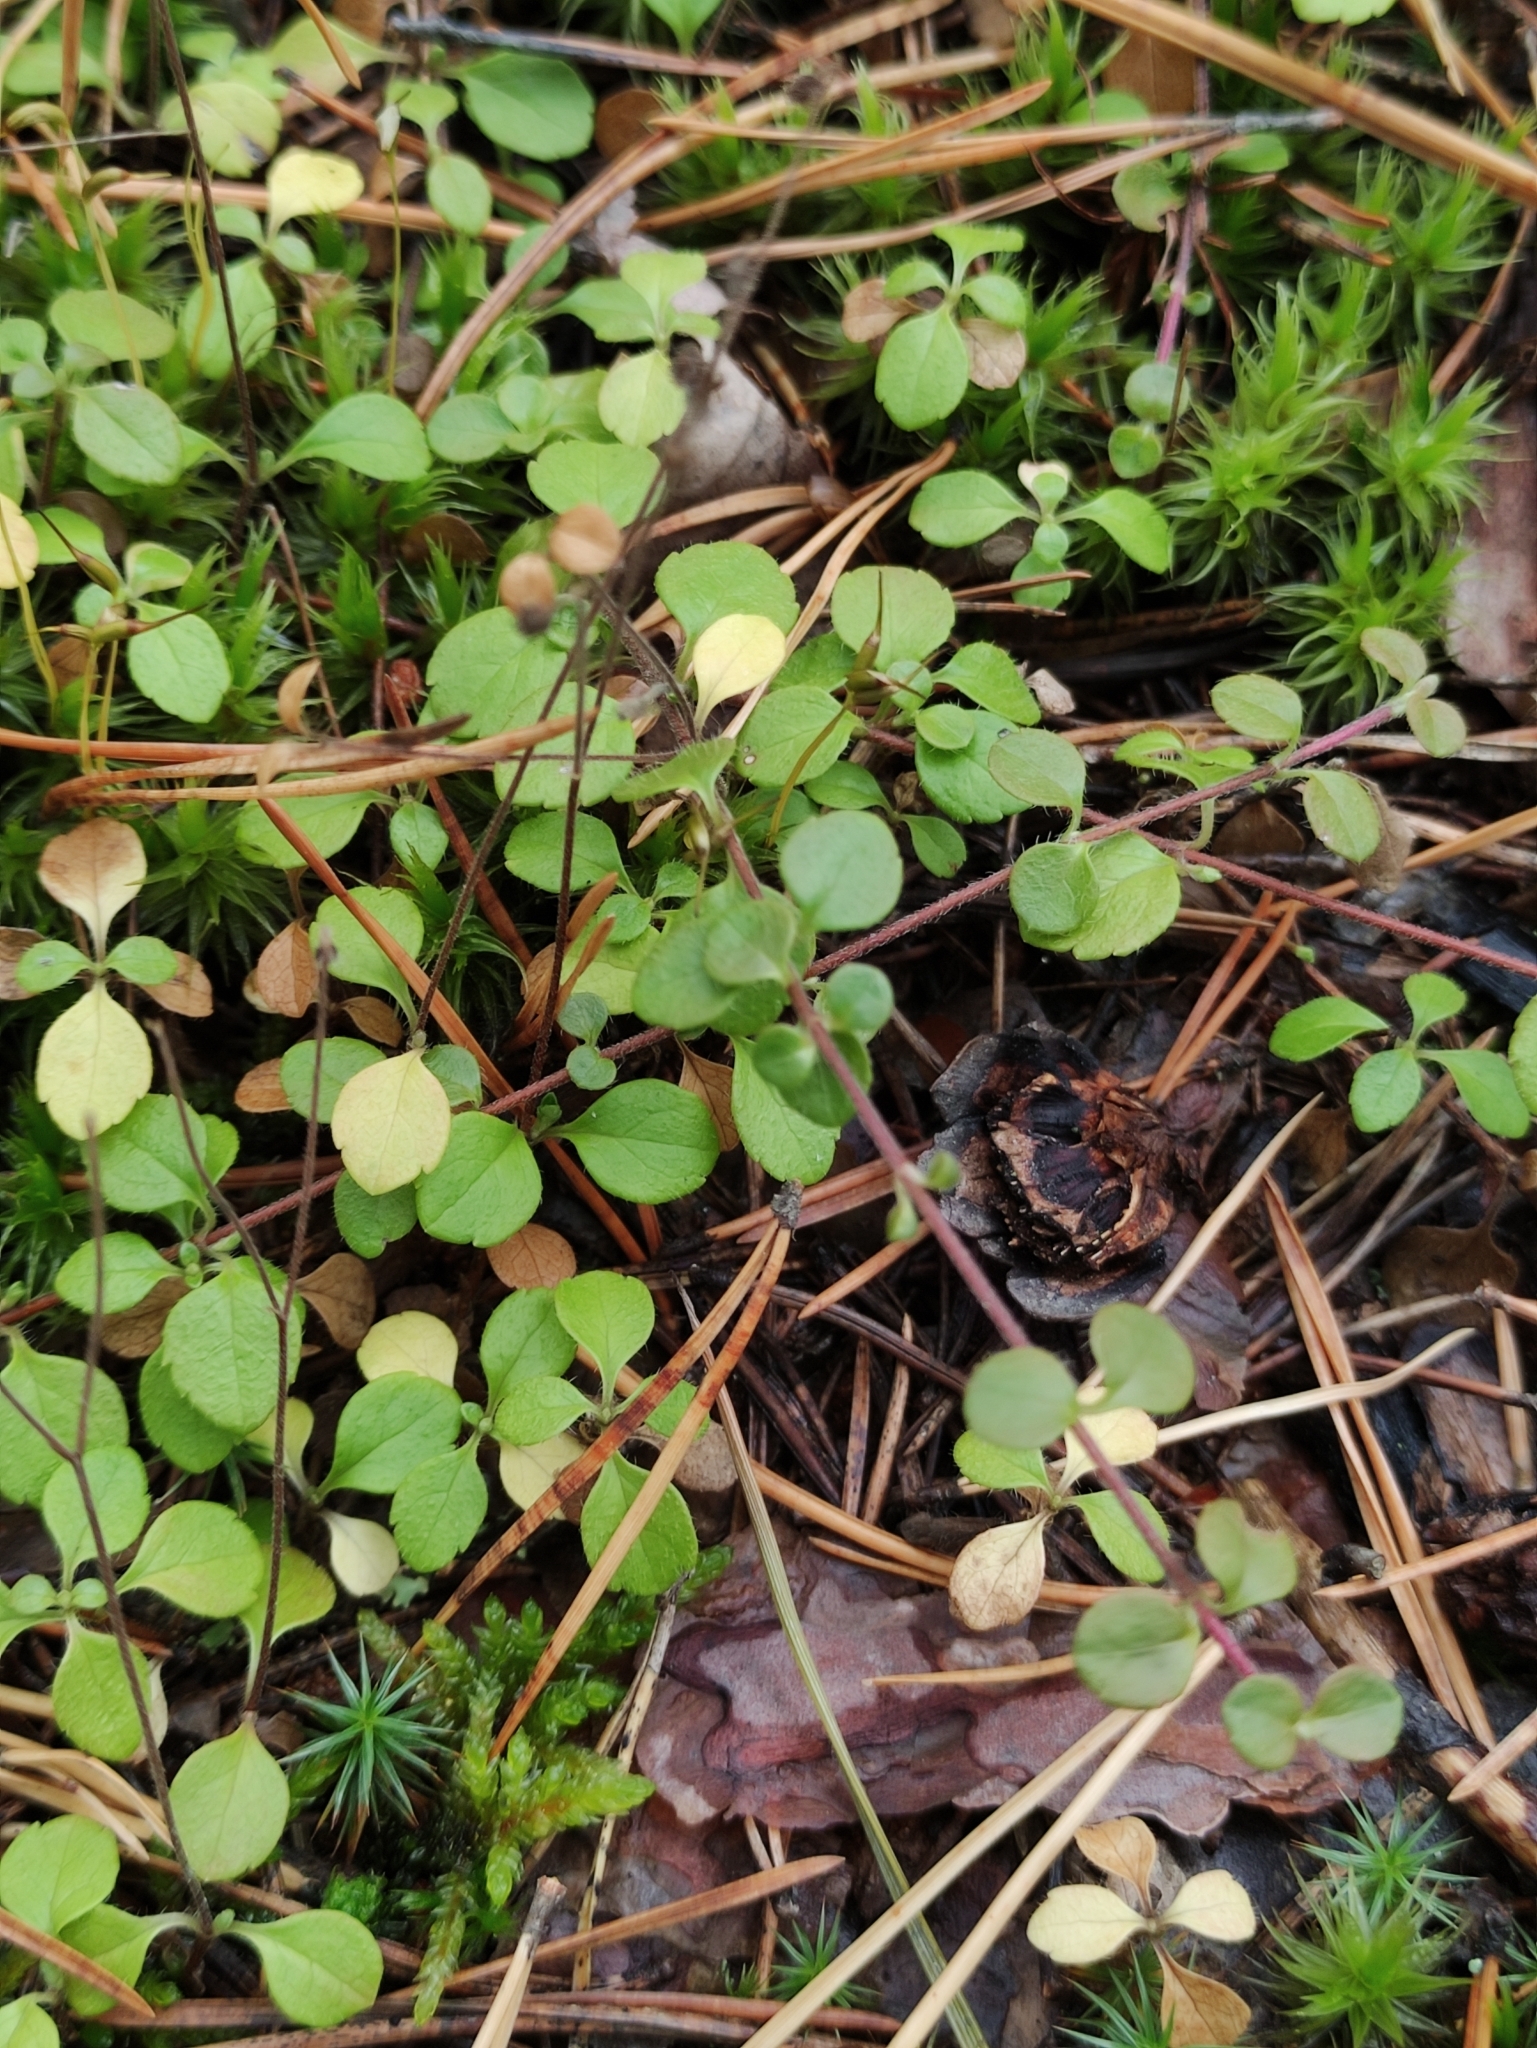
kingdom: Plantae
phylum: Tracheophyta
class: Magnoliopsida
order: Dipsacales
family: Caprifoliaceae
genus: Linnaea
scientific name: Linnaea borealis
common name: Twinflower
